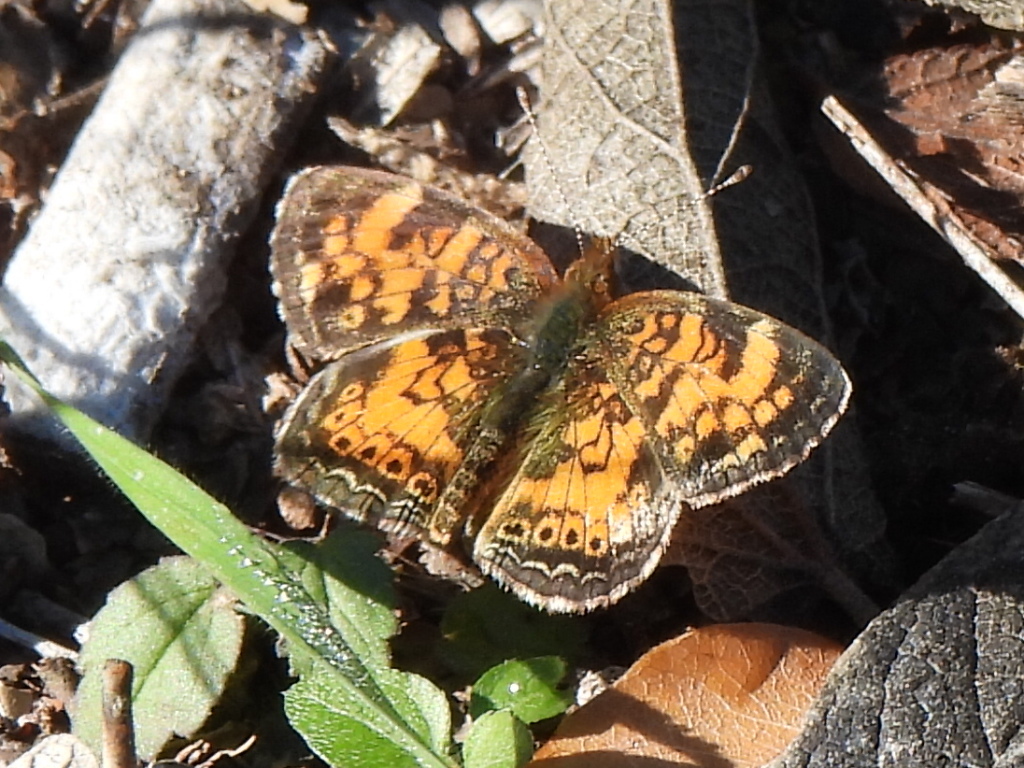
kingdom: Animalia
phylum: Arthropoda
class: Insecta
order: Lepidoptera
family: Nymphalidae
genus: Phyciodes
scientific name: Phyciodes tharos
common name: Pearl crescent
